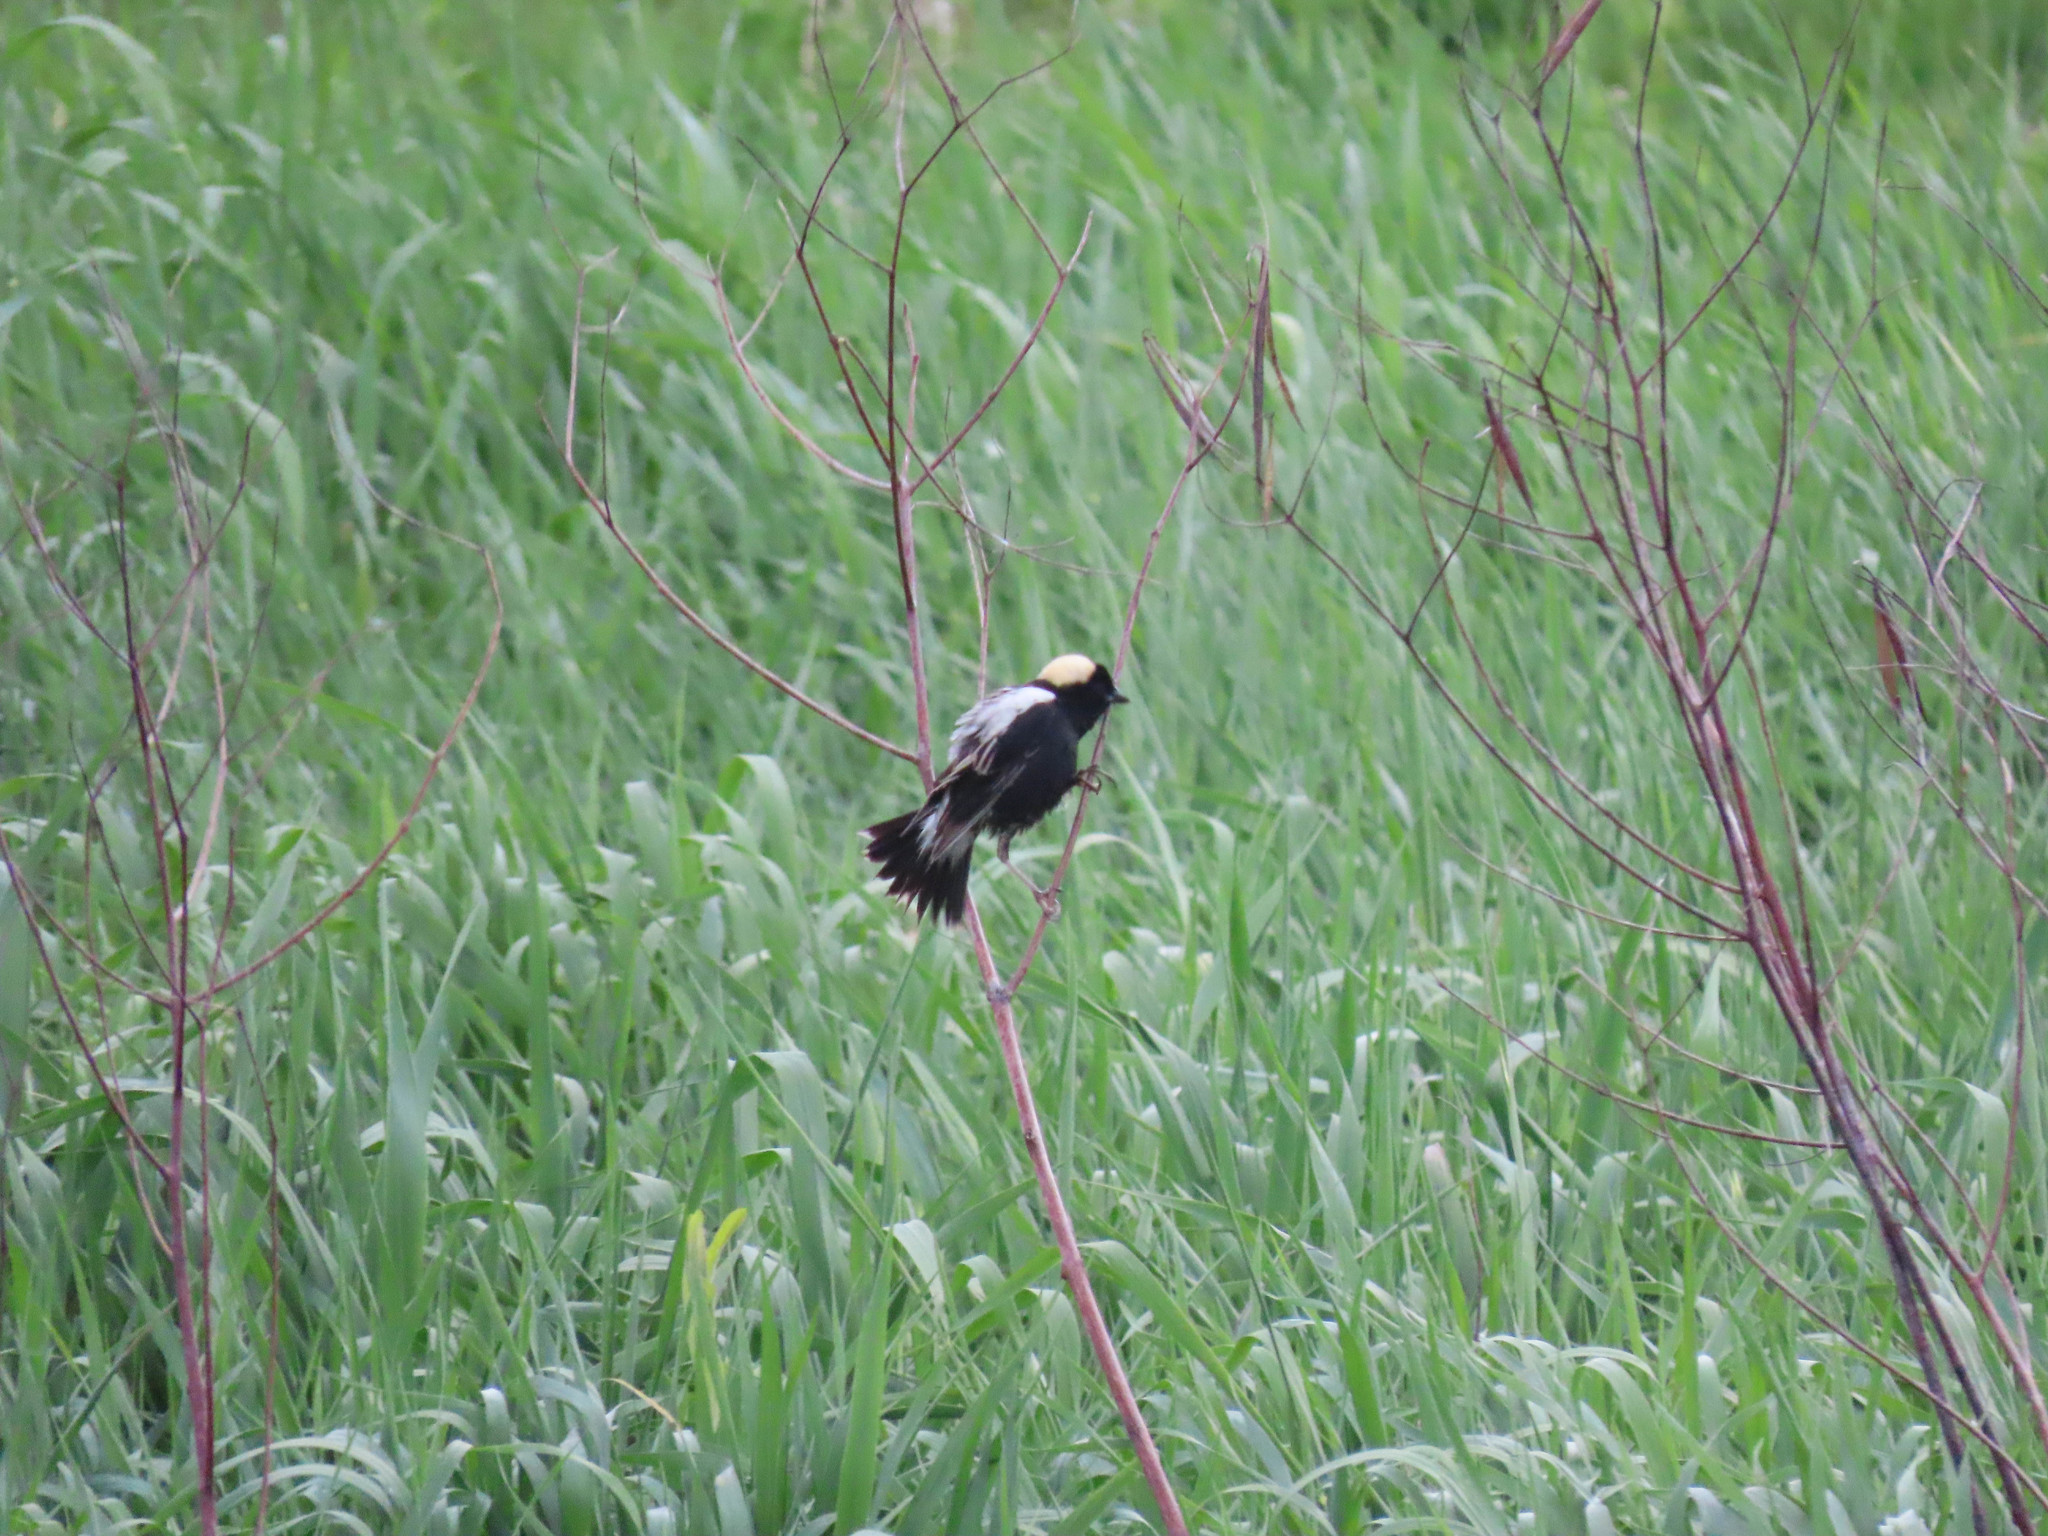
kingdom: Animalia
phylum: Chordata
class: Aves
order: Passeriformes
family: Icteridae
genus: Dolichonyx
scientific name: Dolichonyx oryzivorus
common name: Bobolink
